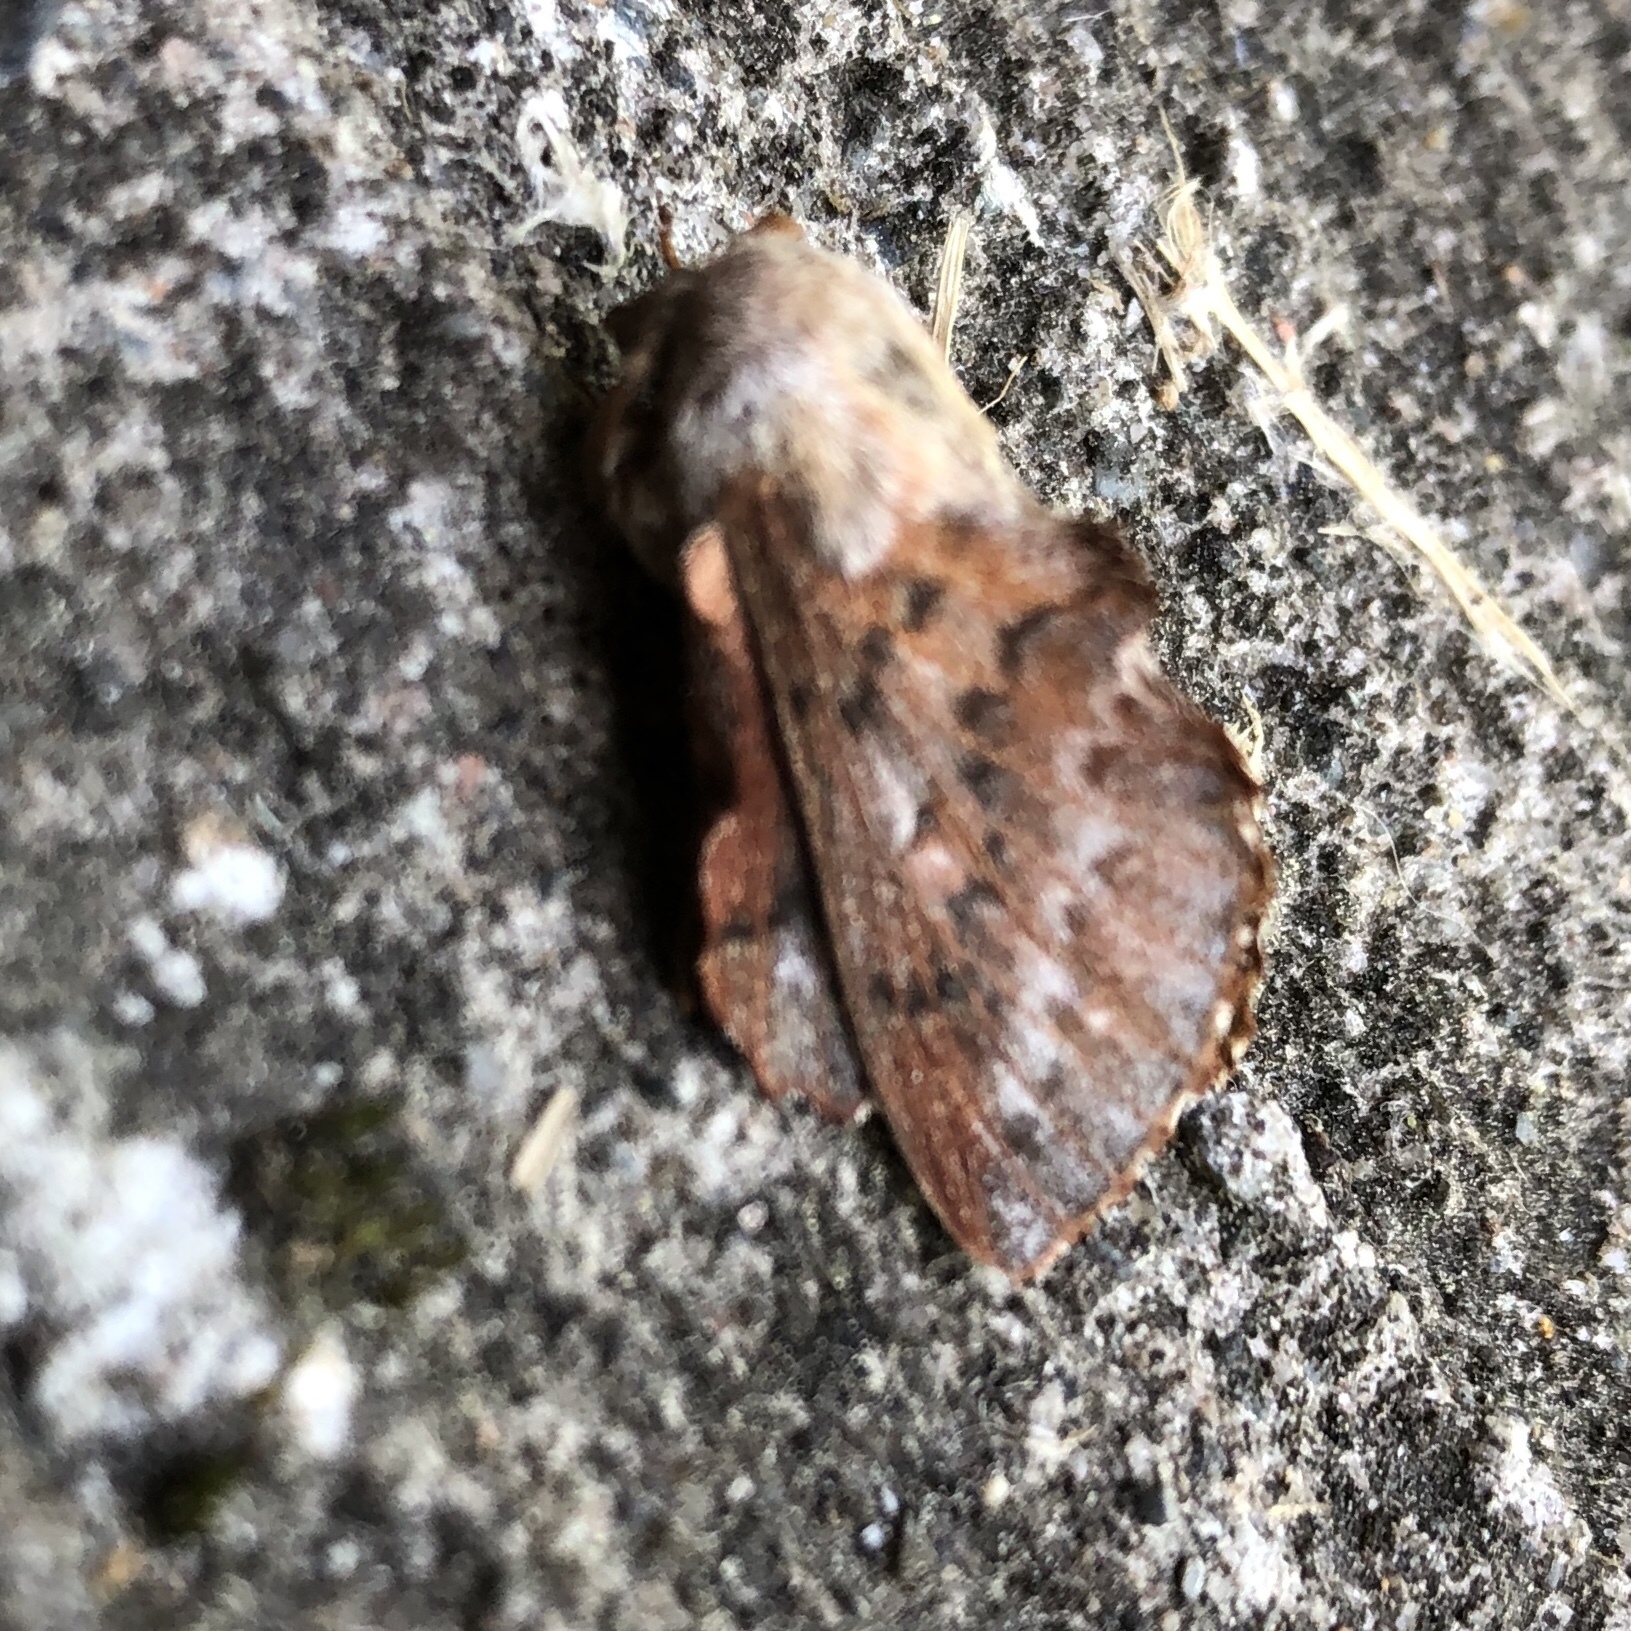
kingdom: Animalia
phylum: Arthropoda
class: Insecta
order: Lepidoptera
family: Lasiocampidae
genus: Phyllodesma
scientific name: Phyllodesma americana
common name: American lappet moth
